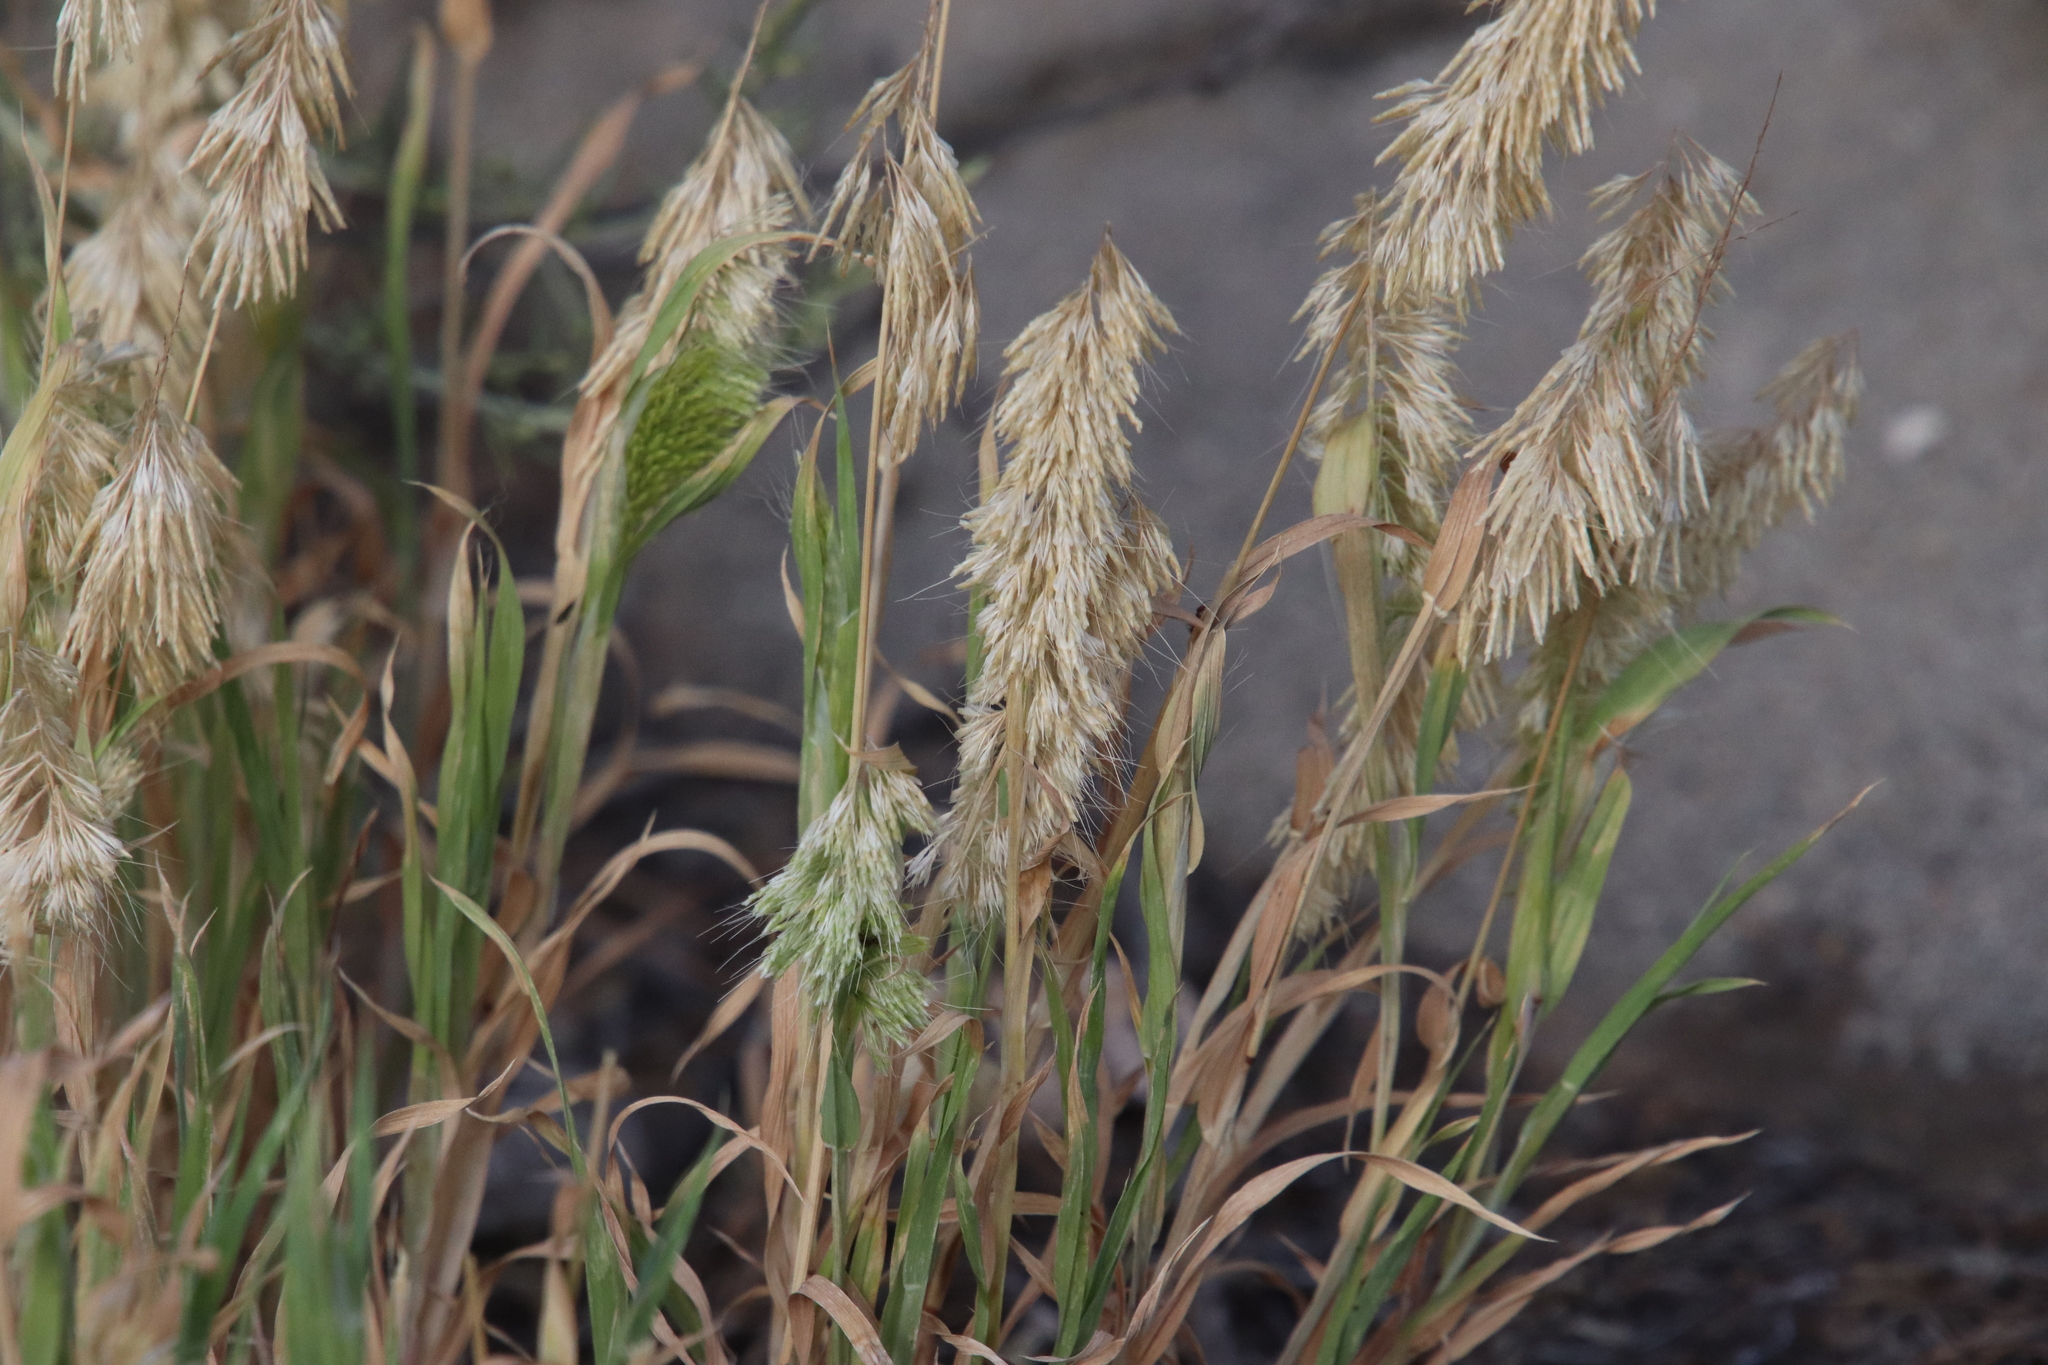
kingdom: Plantae
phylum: Tracheophyta
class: Liliopsida
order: Poales
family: Poaceae
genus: Lamarckia
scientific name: Lamarckia aurea
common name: Golden dog's-tail
